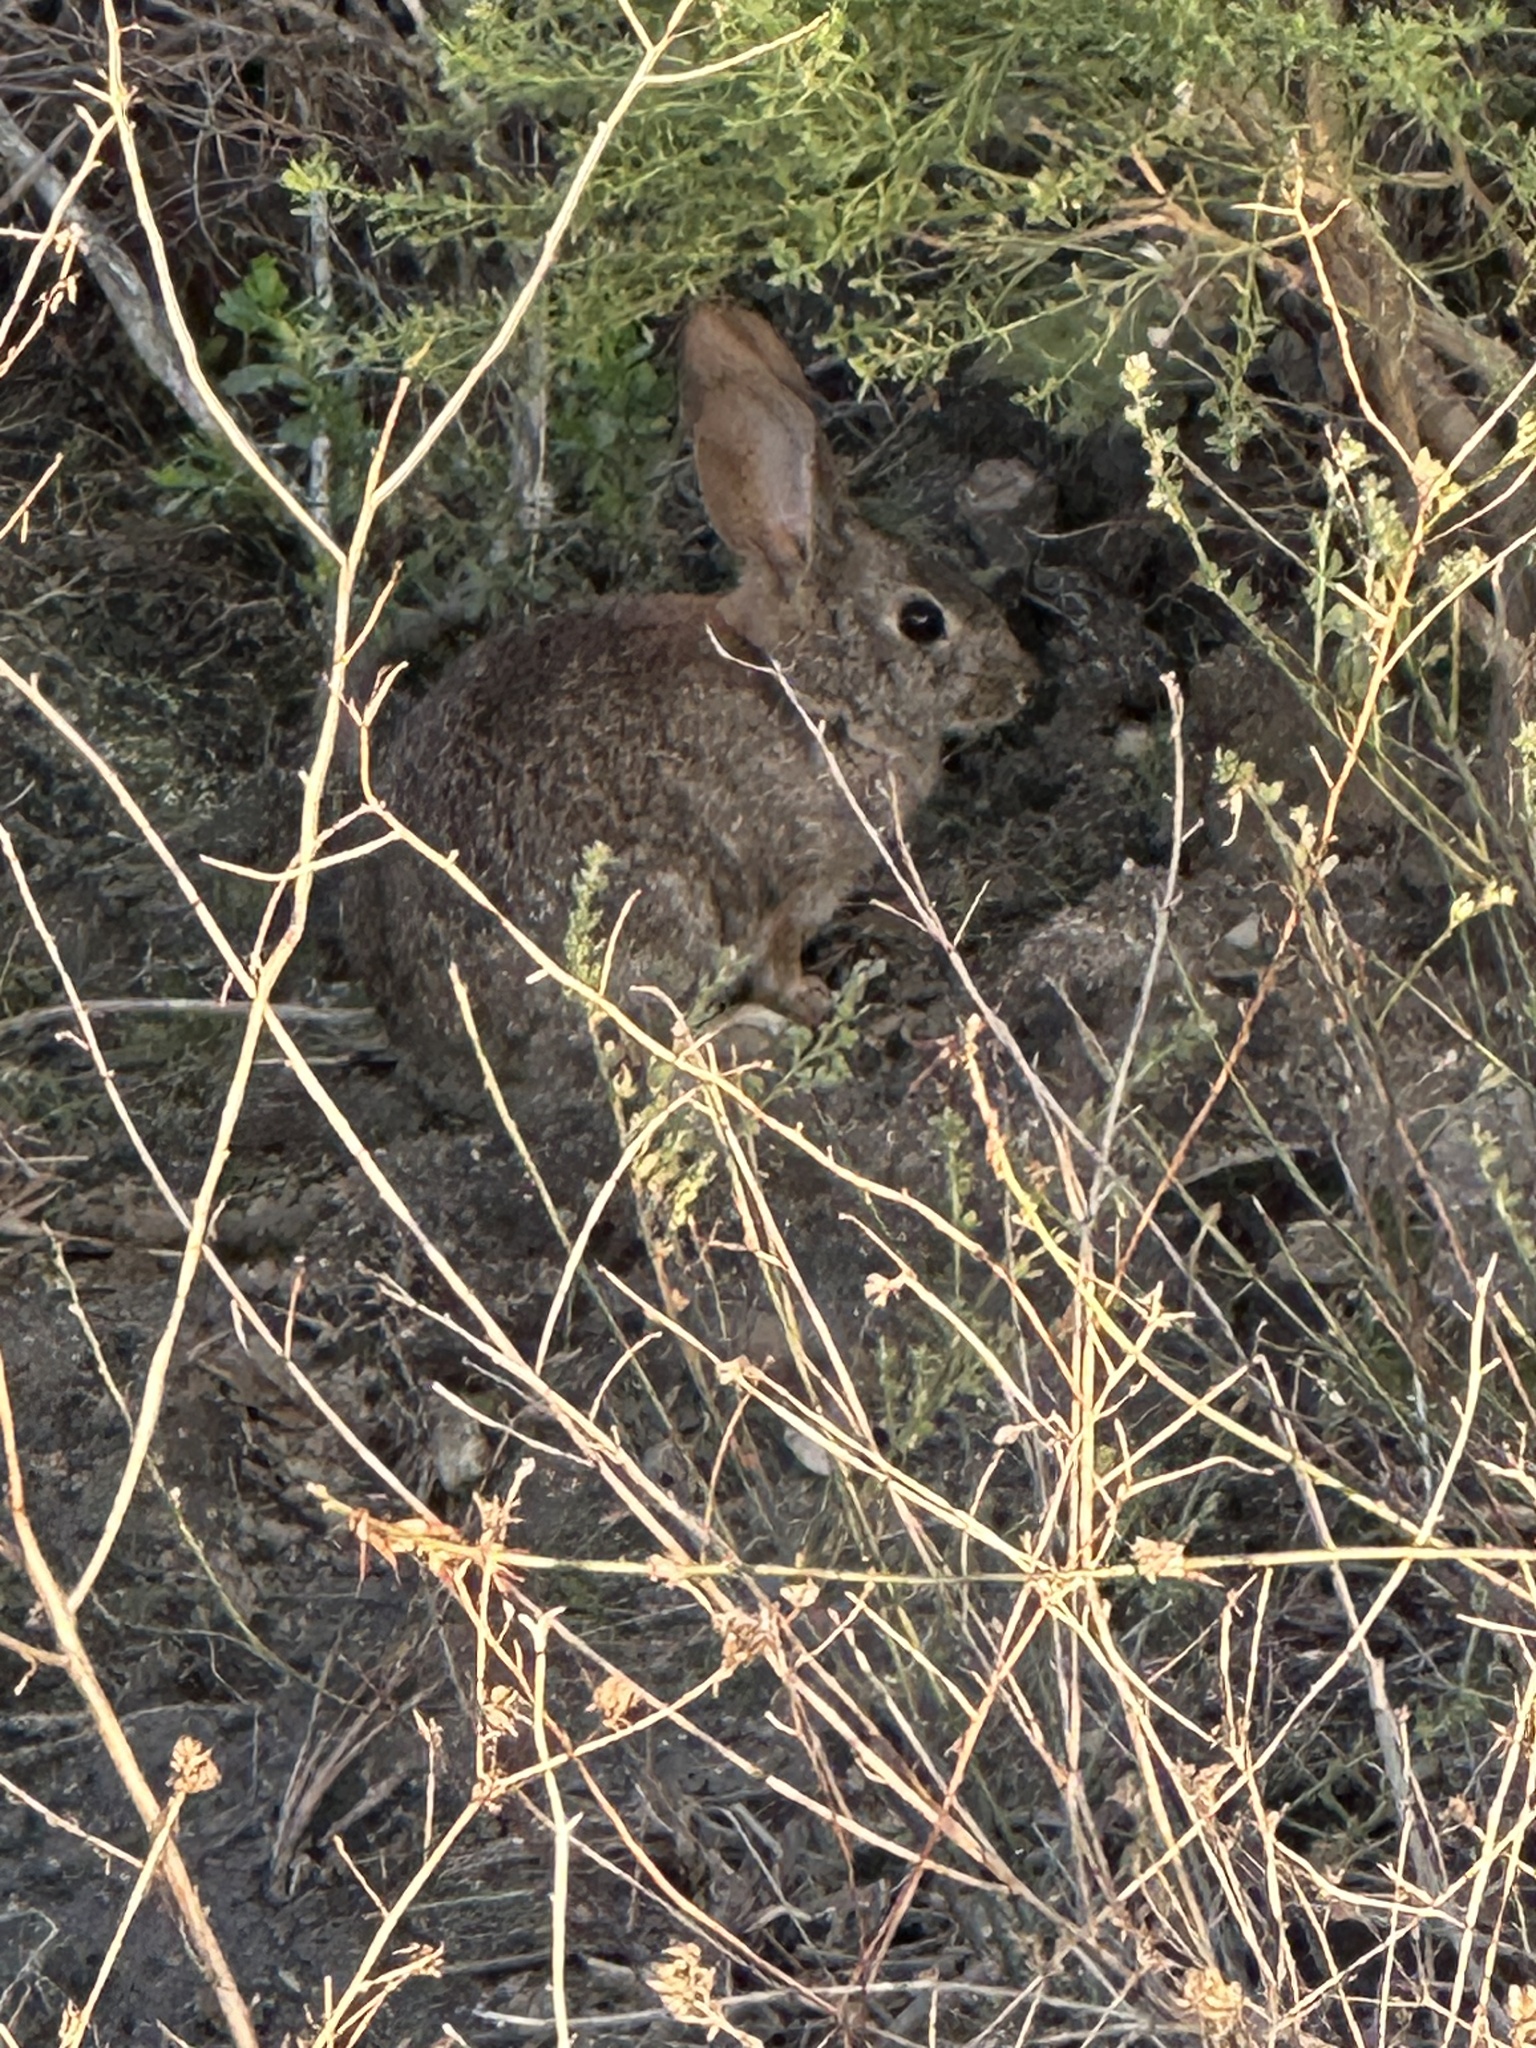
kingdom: Animalia
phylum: Chordata
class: Mammalia
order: Lagomorpha
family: Leporidae
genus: Sylvilagus
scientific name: Sylvilagus bachmani
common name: Brush rabbit
